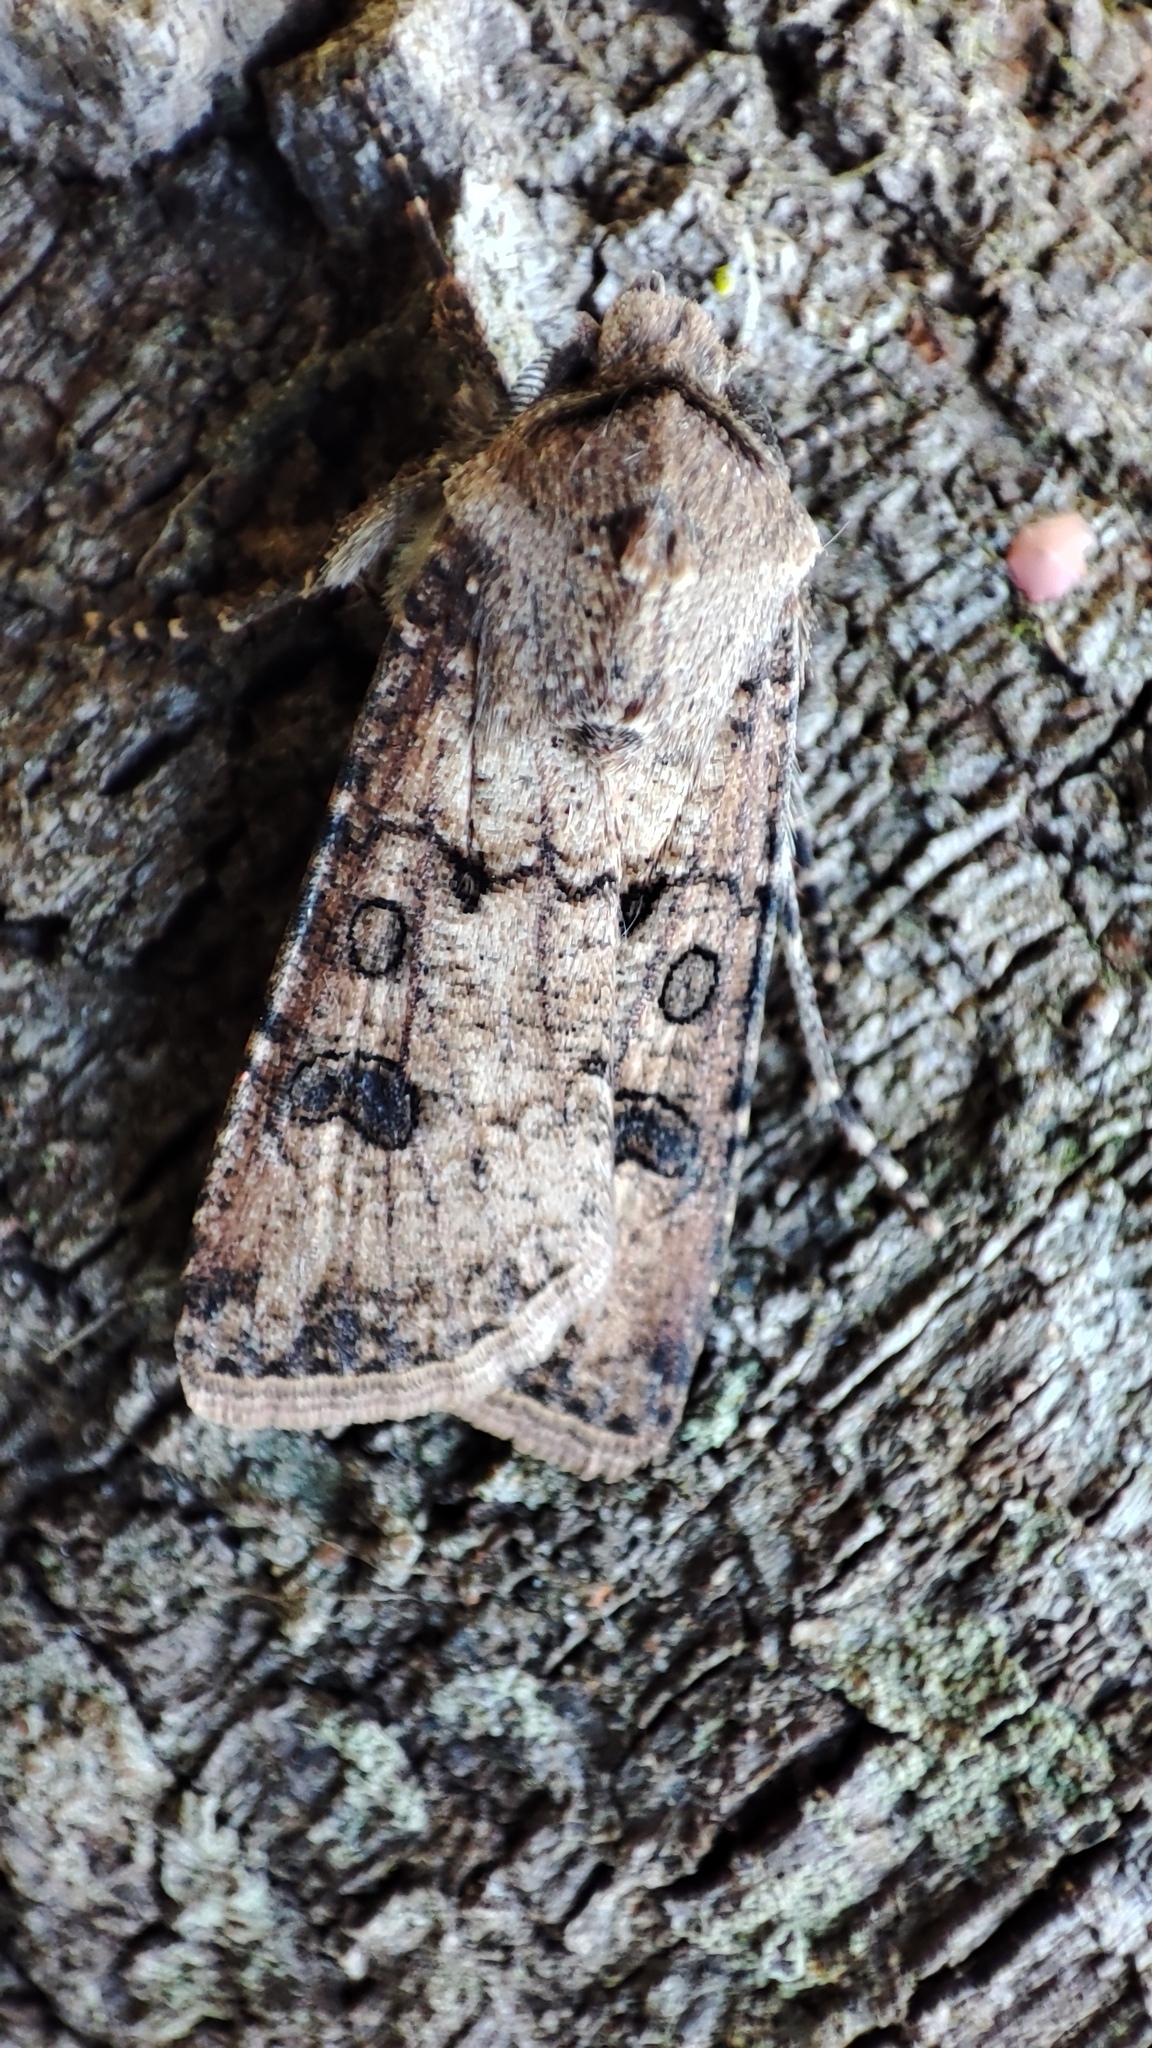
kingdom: Animalia
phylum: Arthropoda
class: Insecta
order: Lepidoptera
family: Noctuidae
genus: Agrotis
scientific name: Agrotis segetum
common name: Turnip moth
